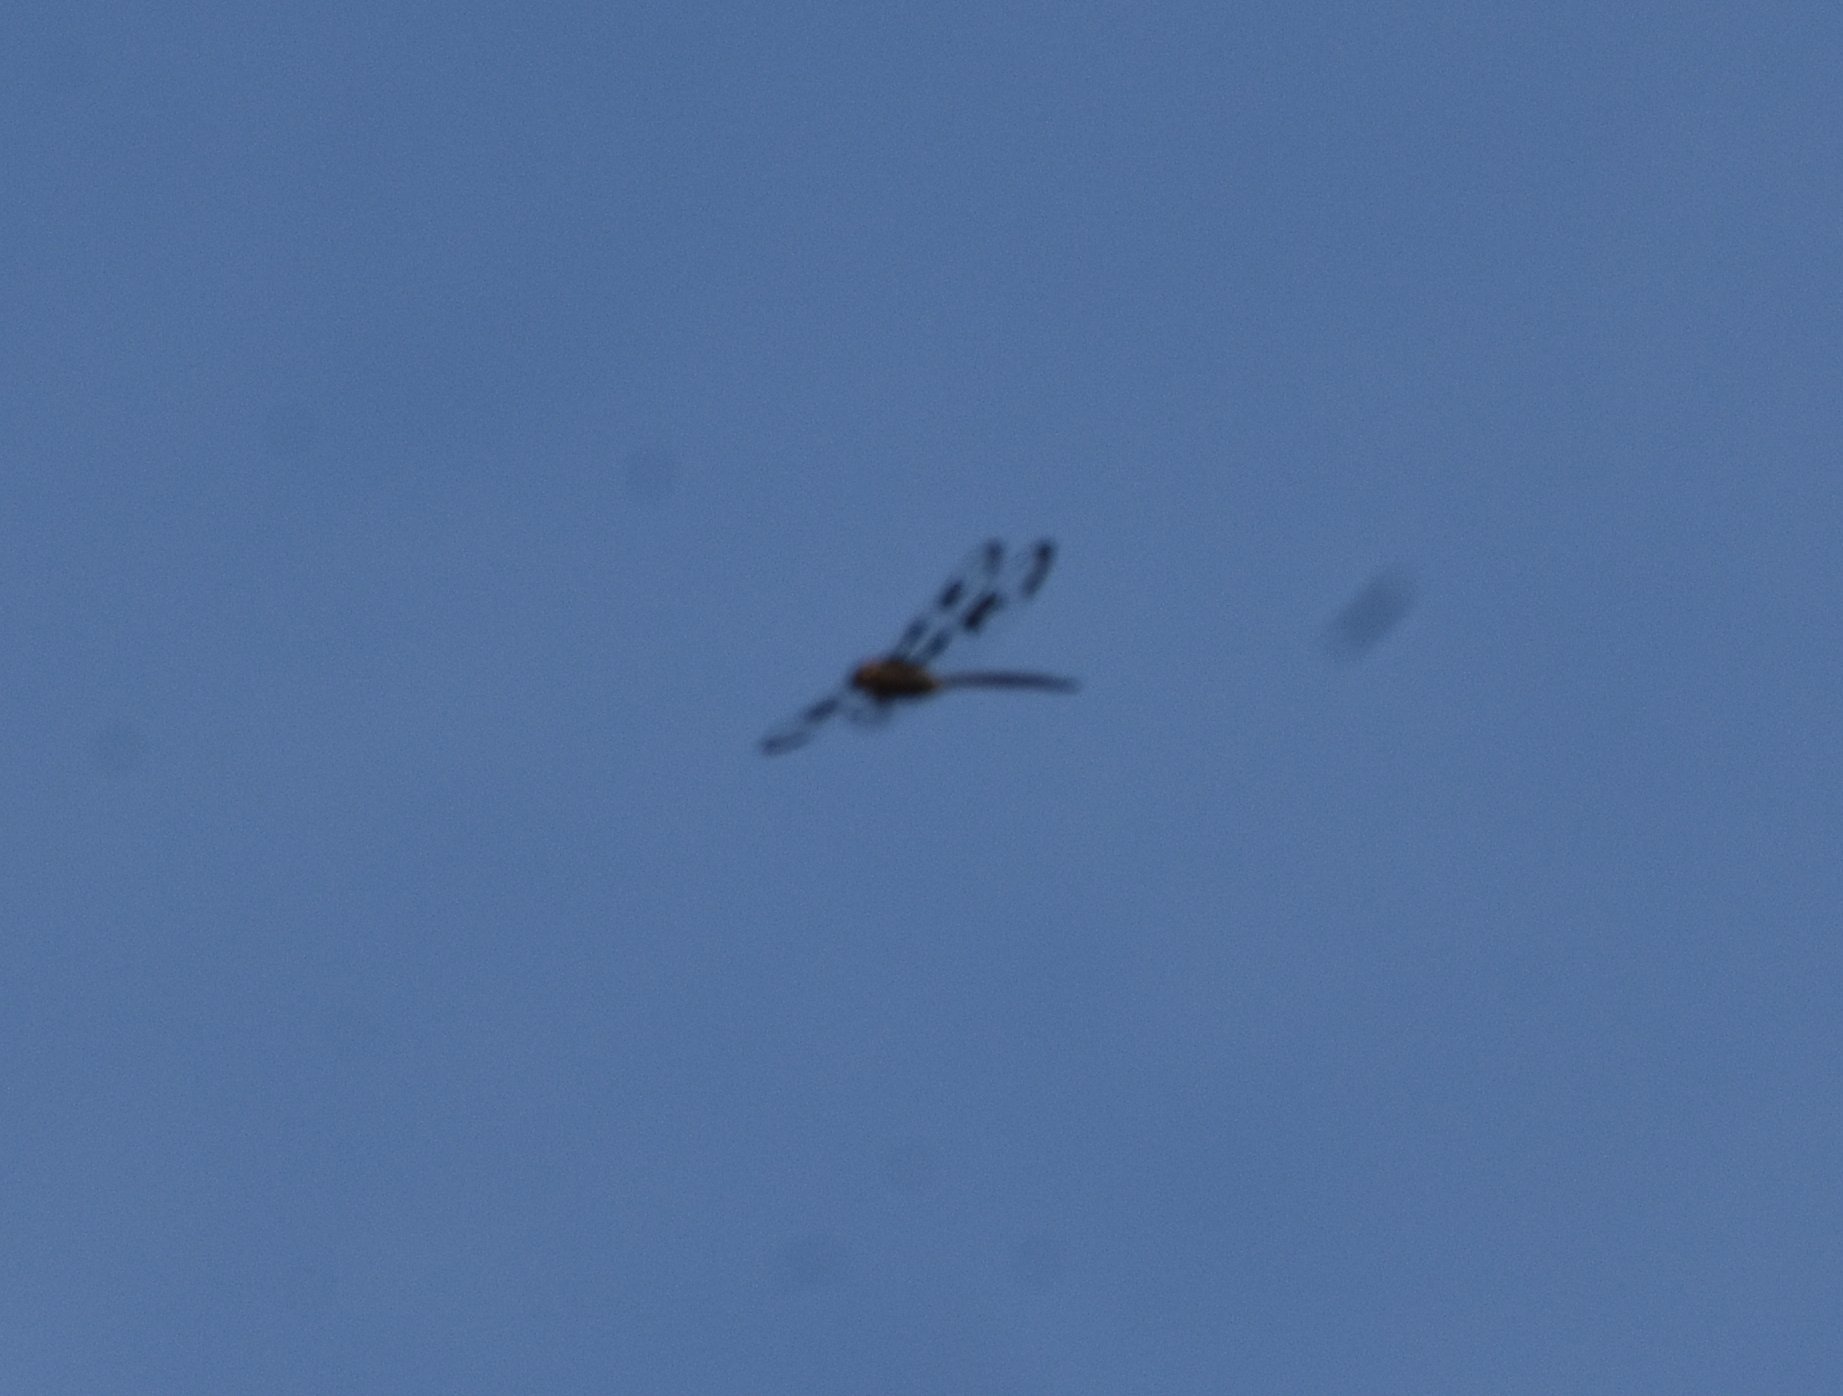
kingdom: Animalia
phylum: Arthropoda
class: Insecta
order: Odonata
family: Corduliidae
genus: Epitheca
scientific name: Epitheca princeps
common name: Prince baskettail
